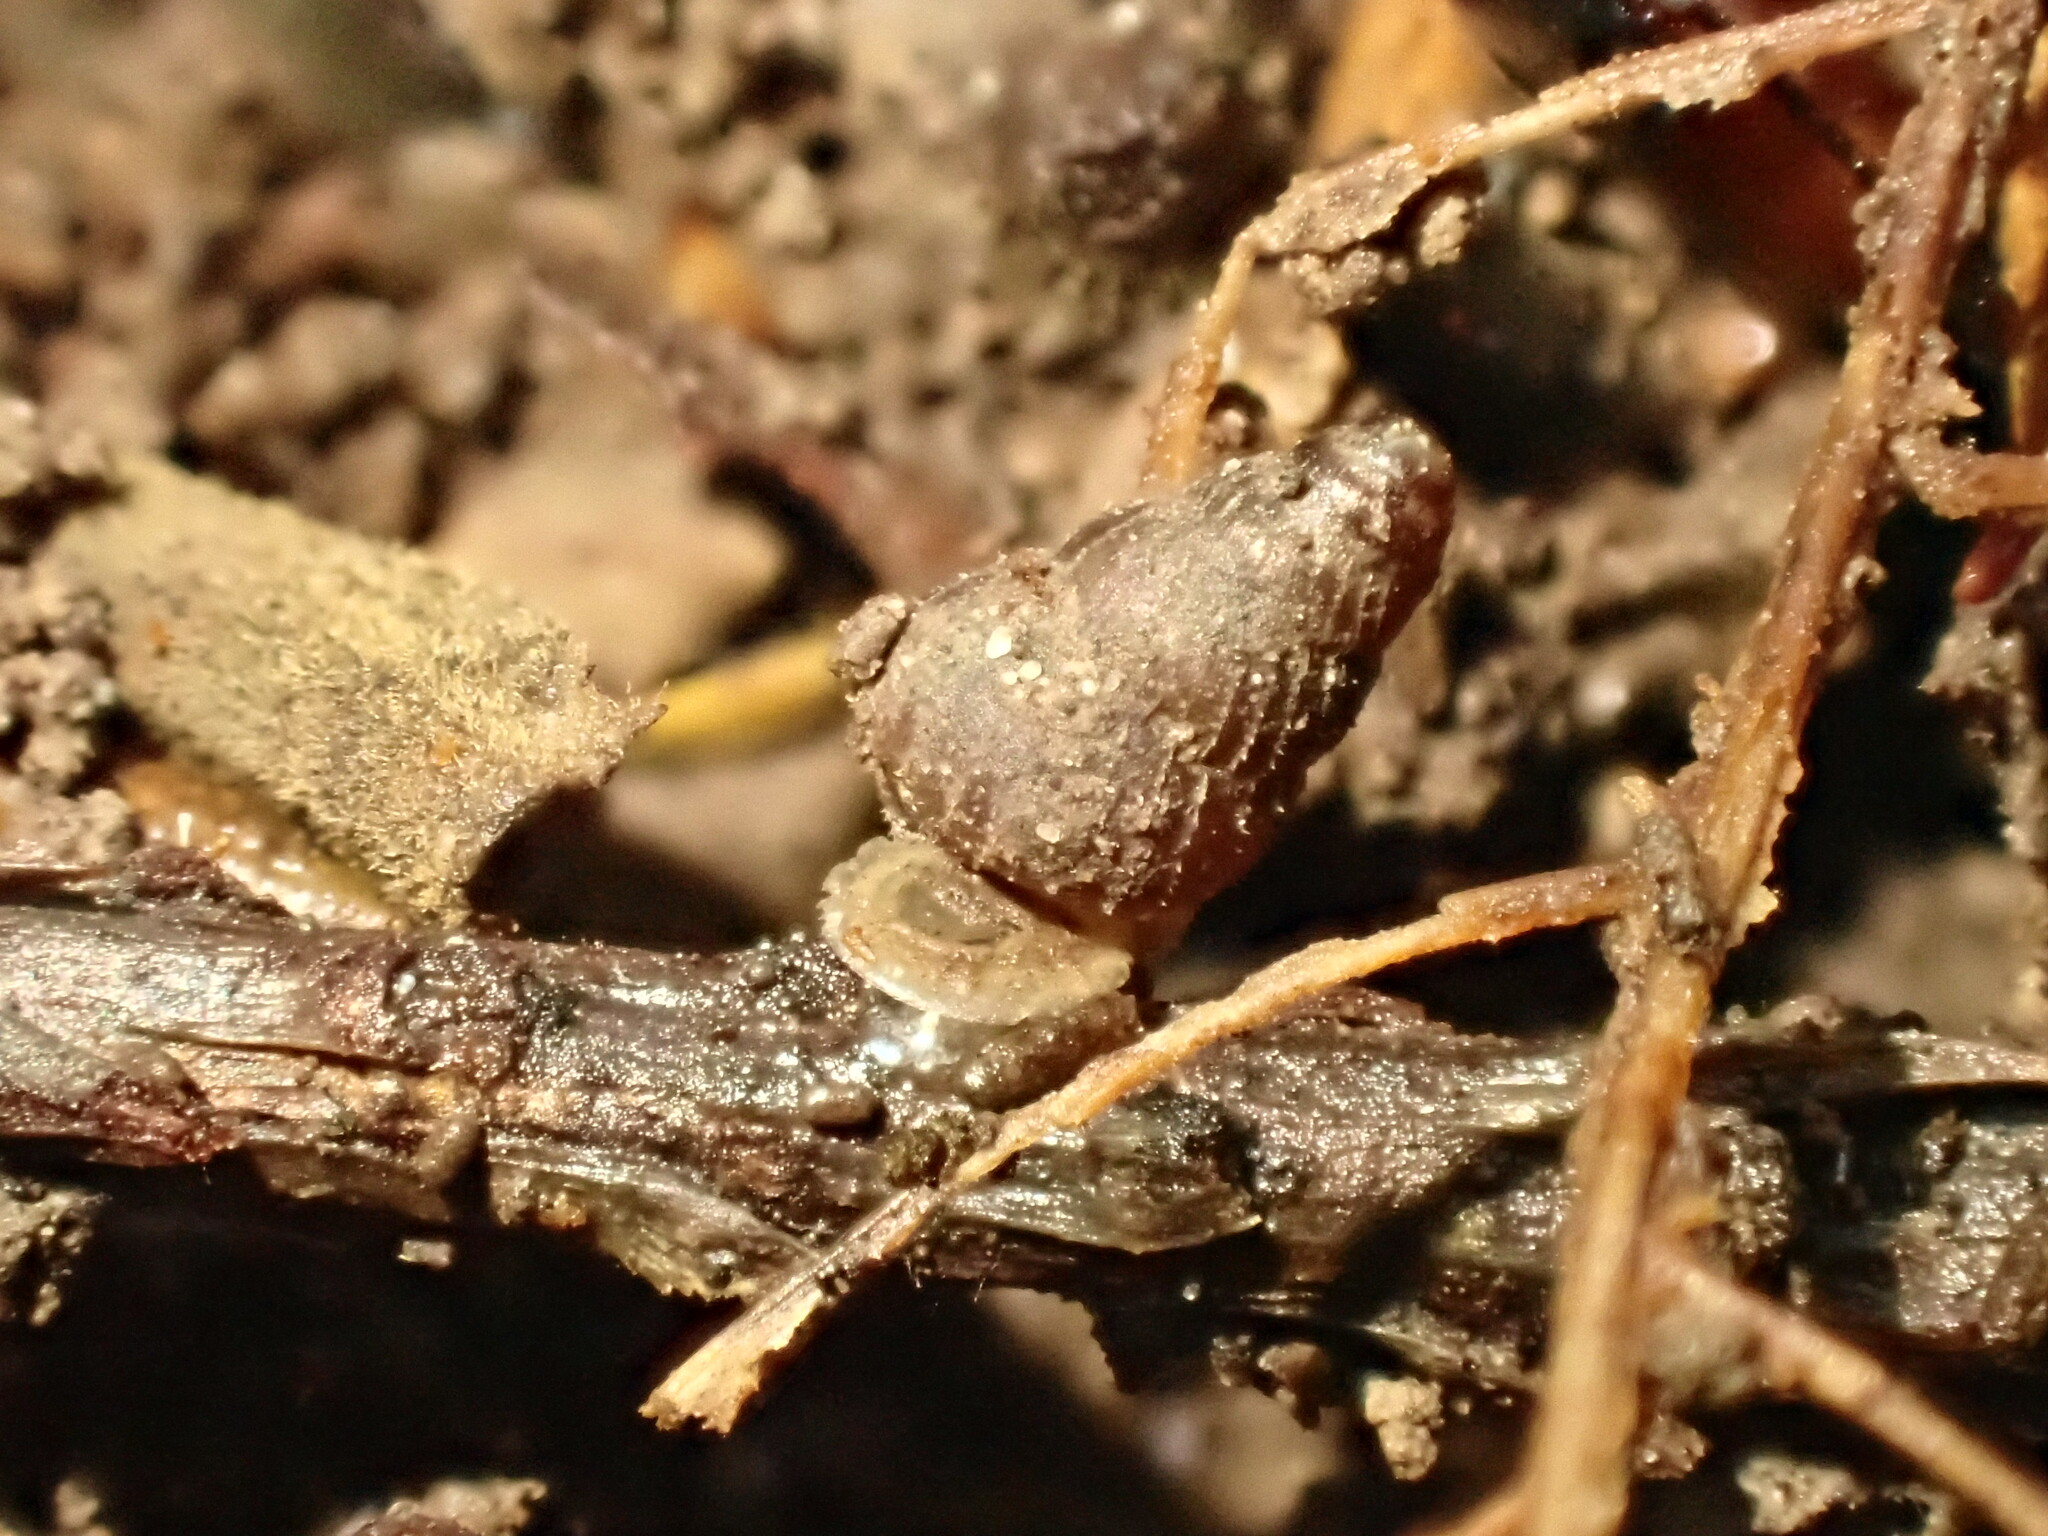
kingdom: Animalia
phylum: Mollusca
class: Gastropoda
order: Architaenioglossa
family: Pupinidae
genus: Liarea
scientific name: Liarea turriculata
